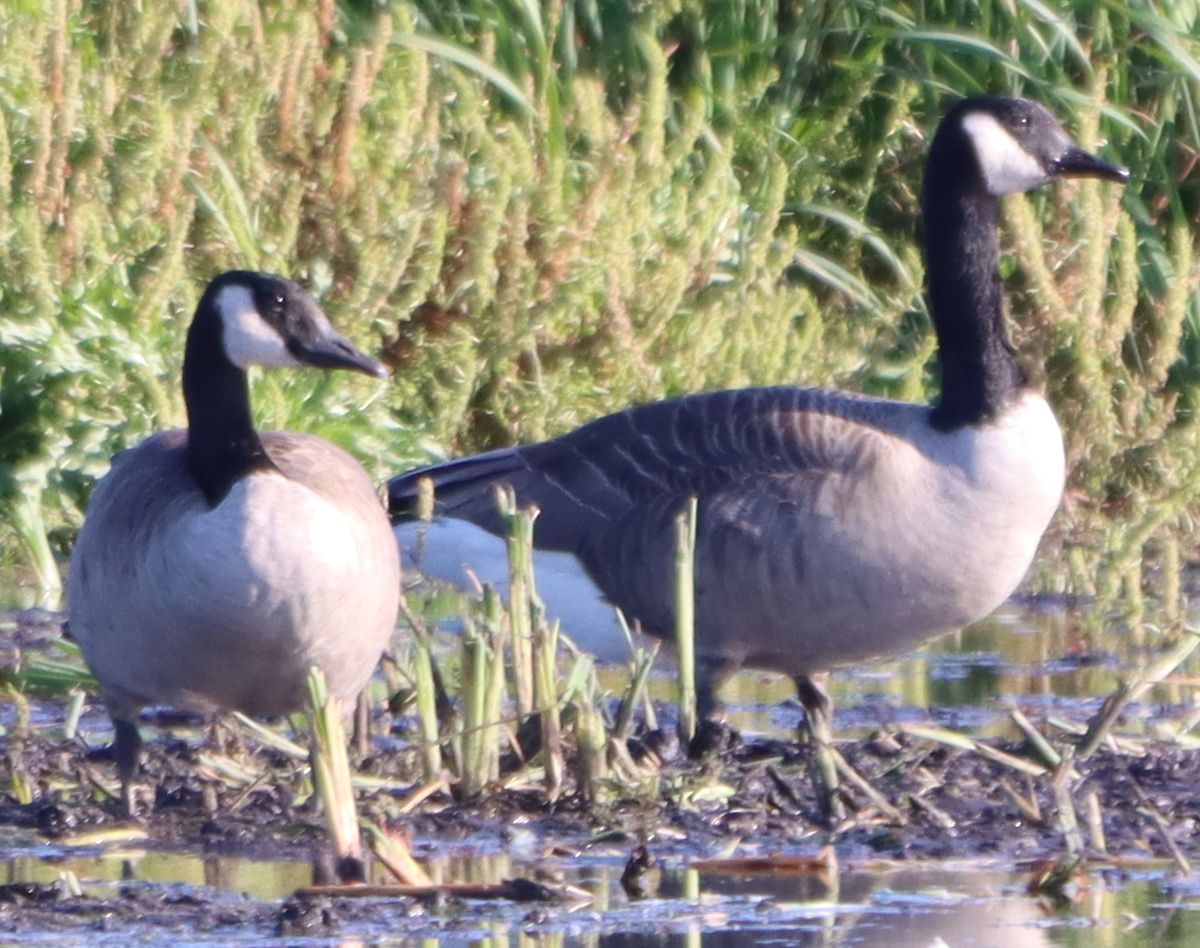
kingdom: Animalia
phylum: Chordata
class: Aves
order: Anseriformes
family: Anatidae
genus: Branta
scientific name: Branta canadensis
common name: Canada goose
